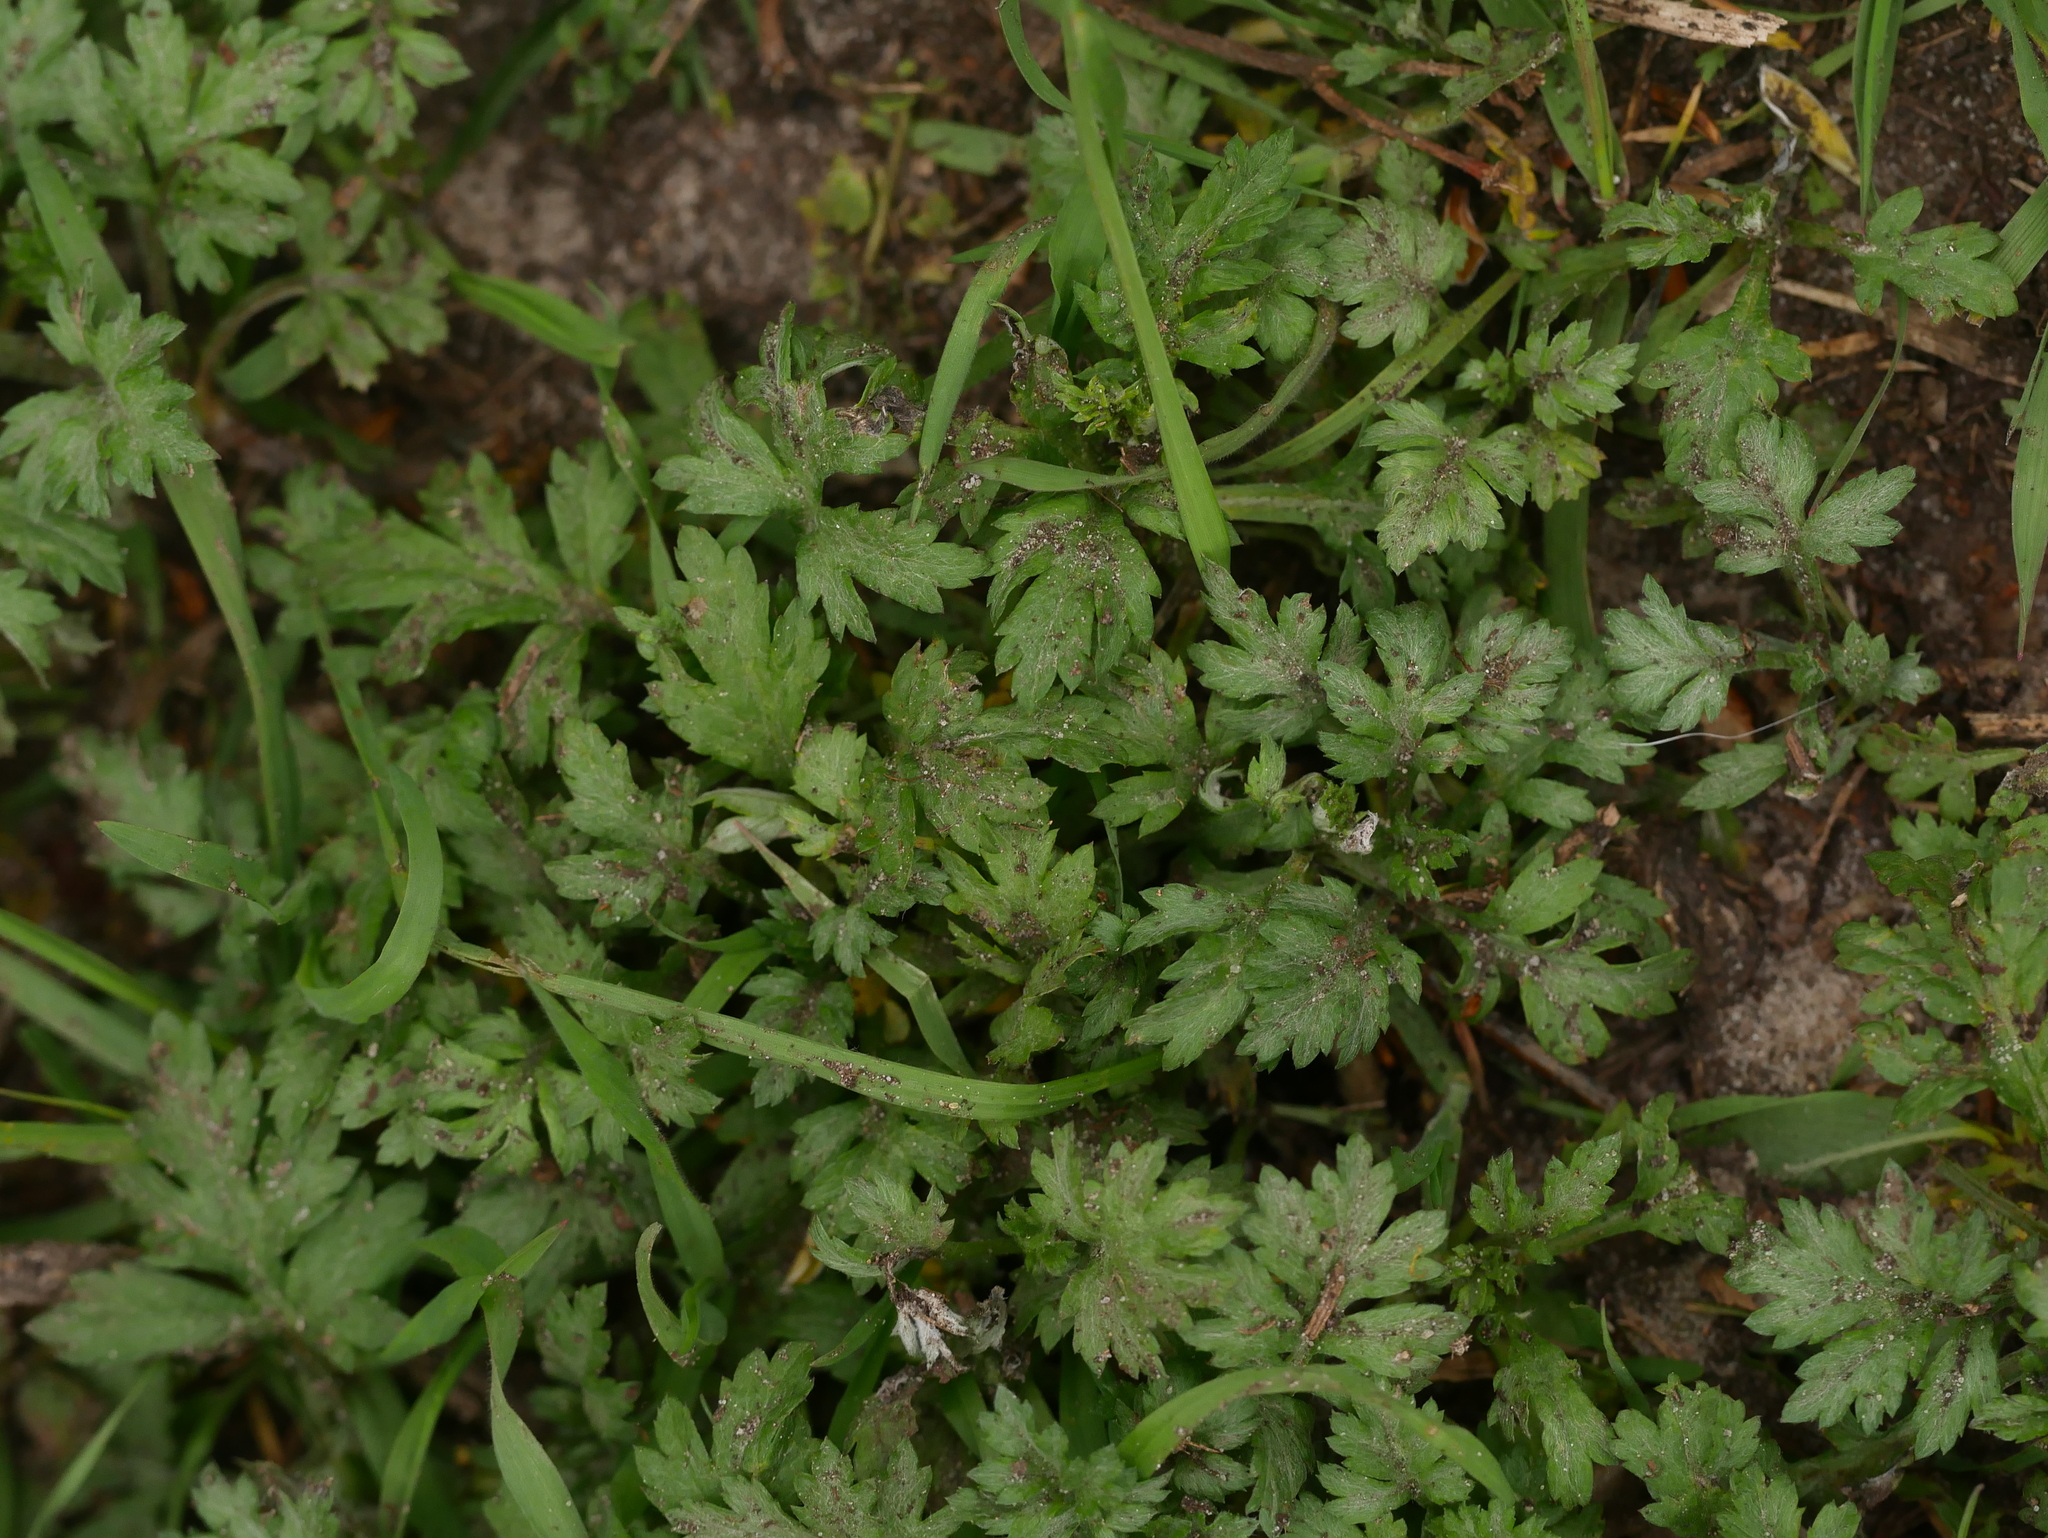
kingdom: Plantae
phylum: Tracheophyta
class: Magnoliopsida
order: Asterales
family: Asteraceae
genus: Artemisia
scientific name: Artemisia vulgaris
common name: Mugwort
